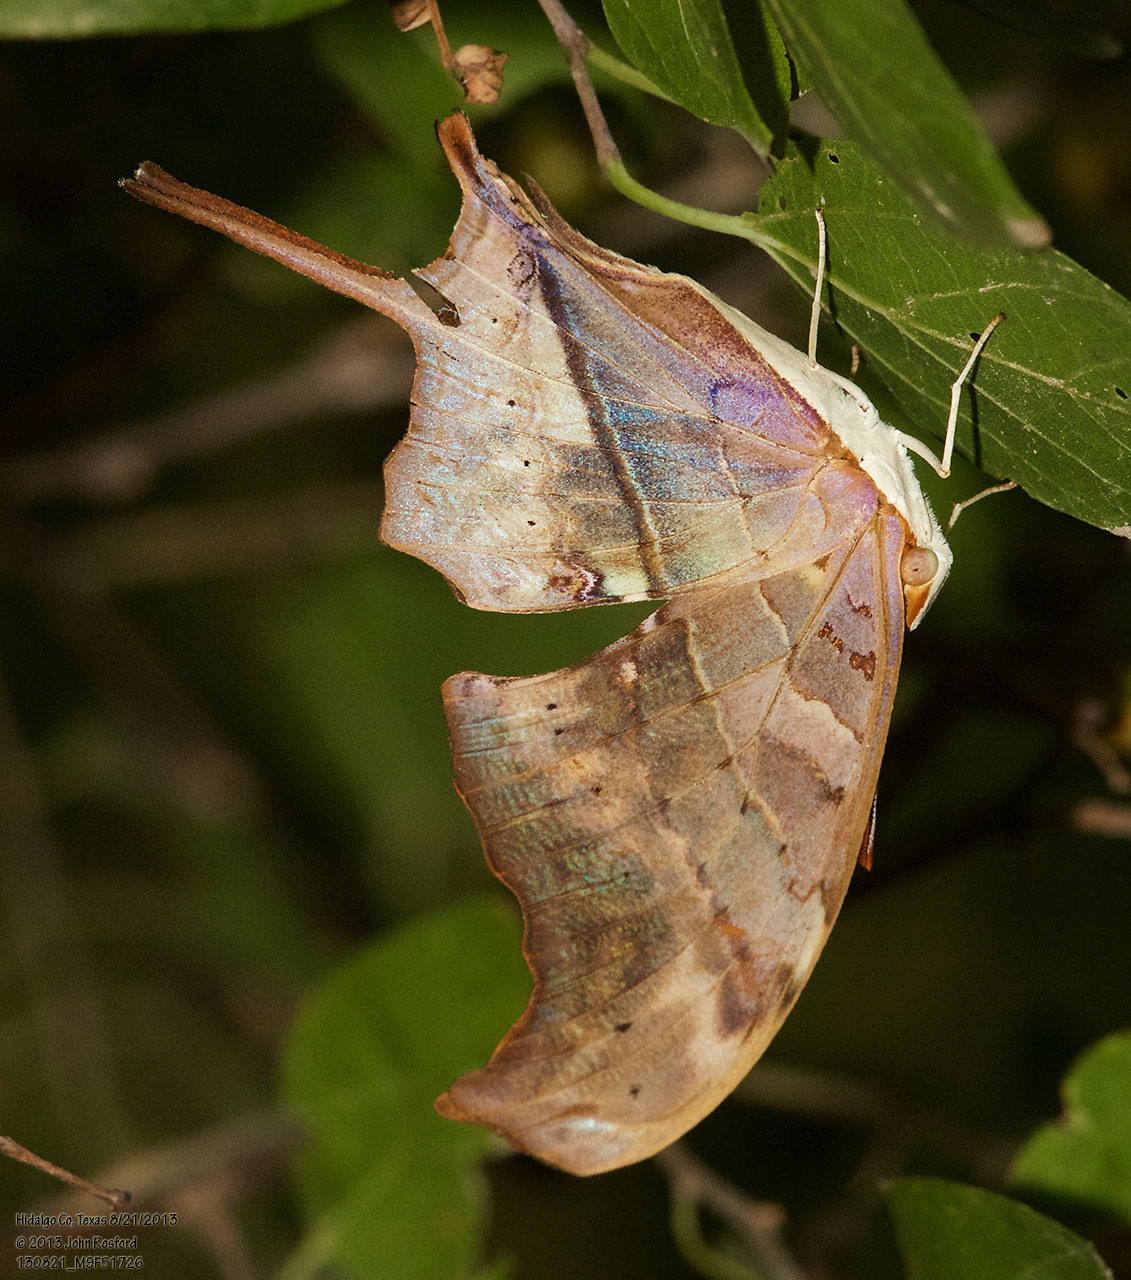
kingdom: Animalia
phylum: Arthropoda
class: Insecta
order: Lepidoptera
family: Nymphalidae
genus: Marpesia
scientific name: Marpesia petreus
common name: Red dagger wing
